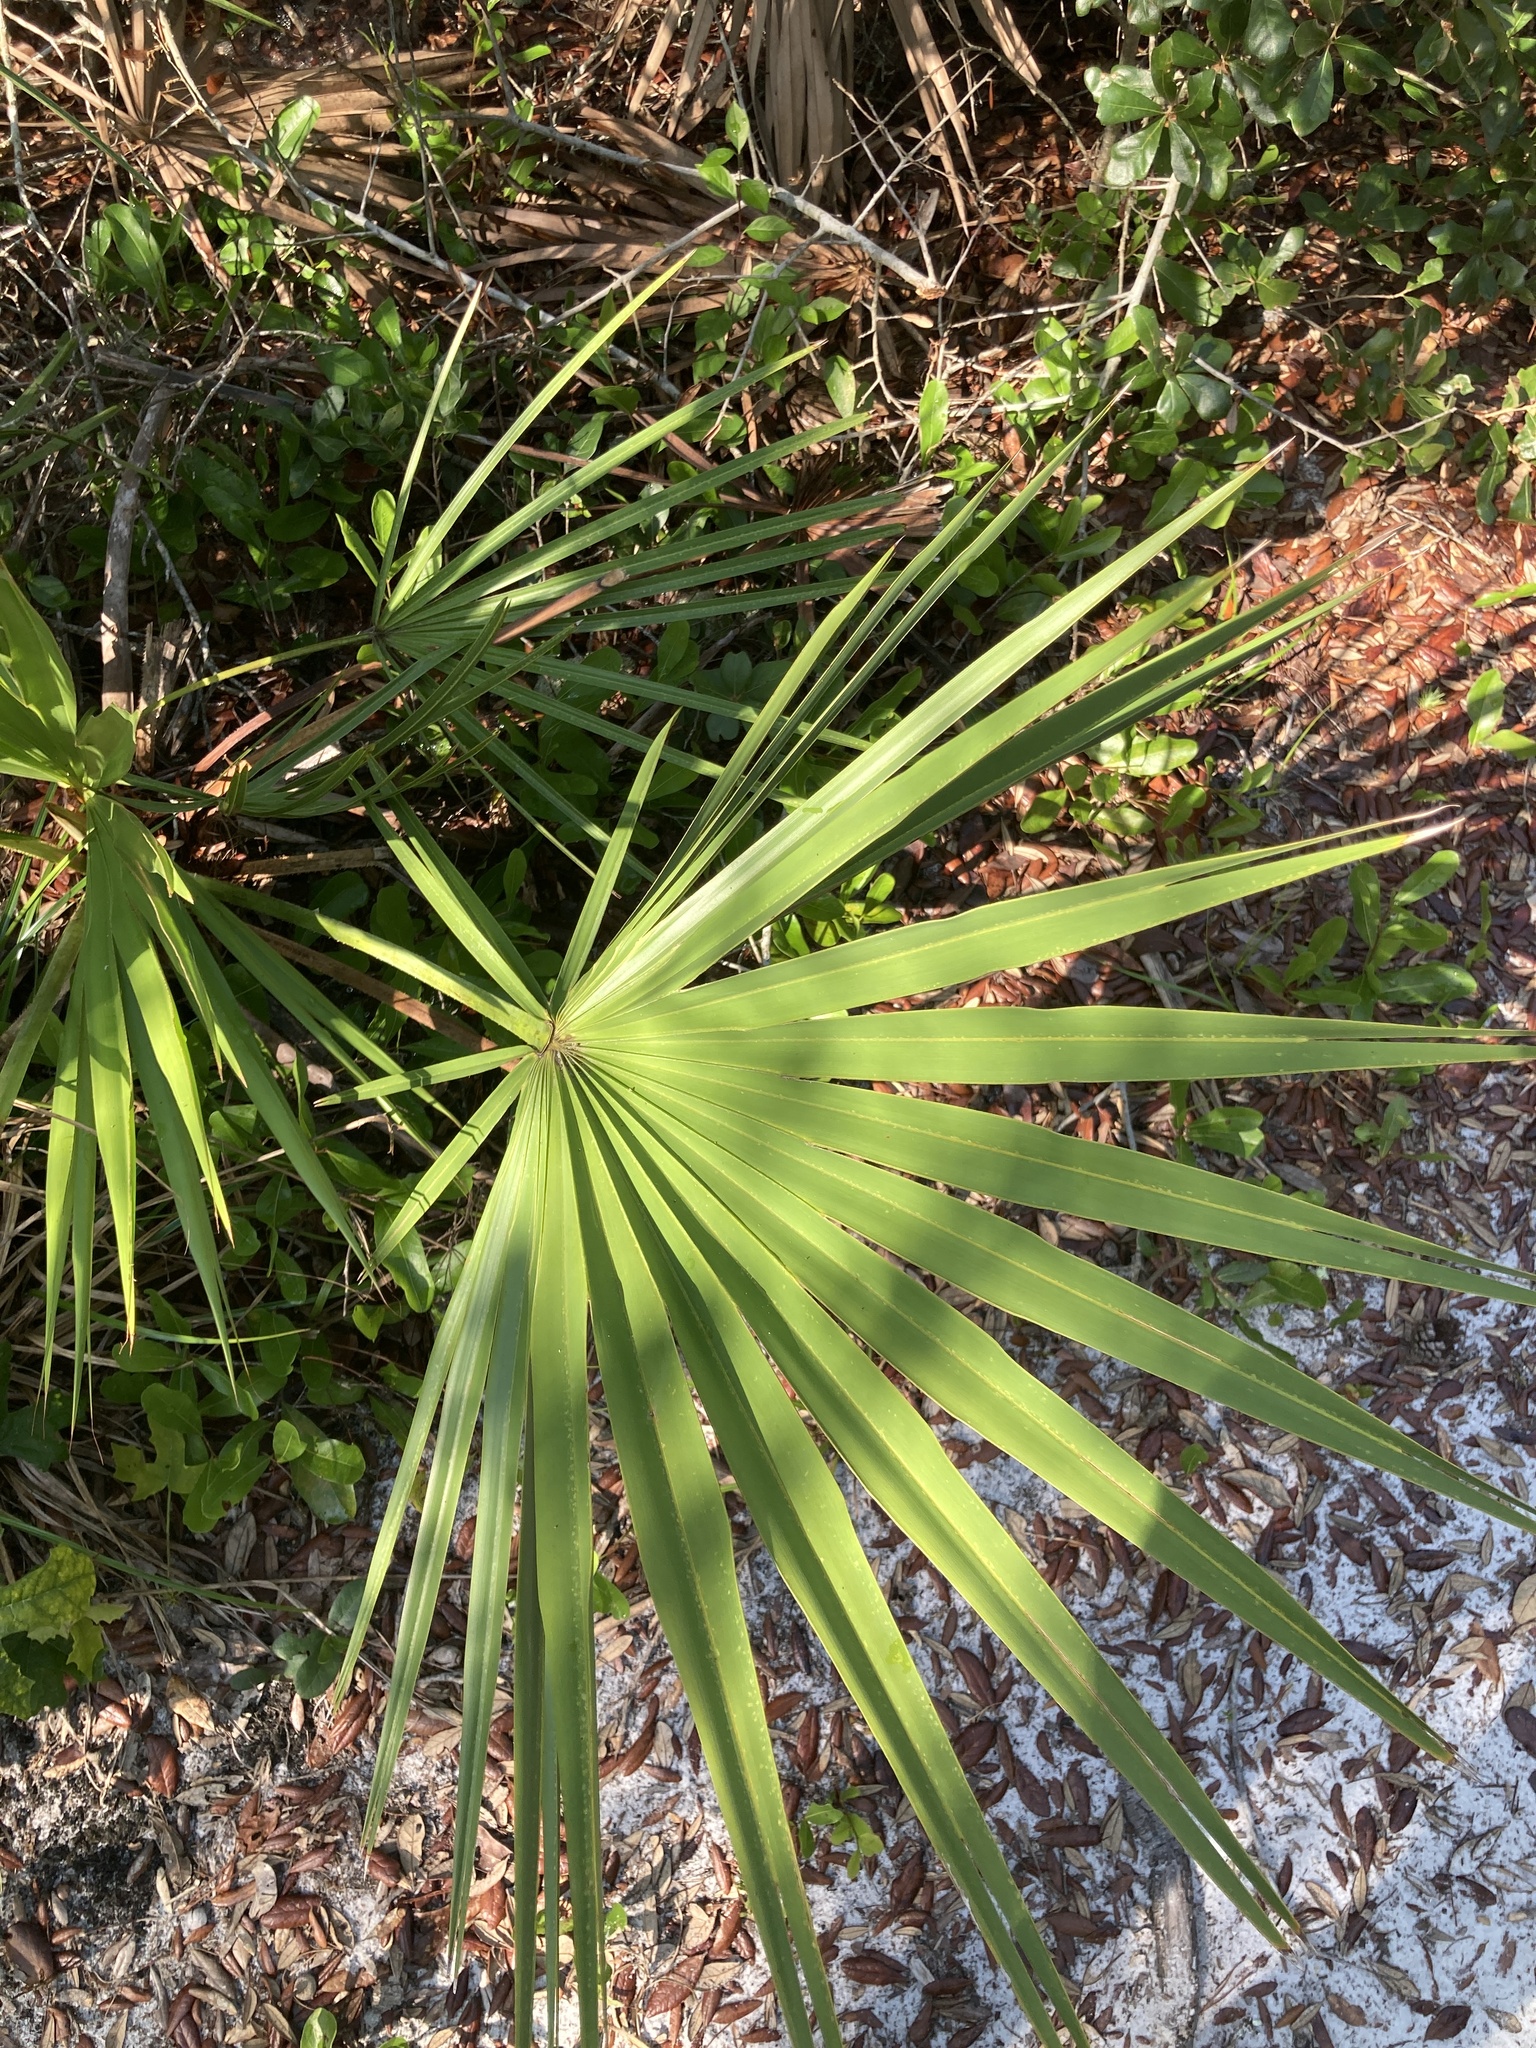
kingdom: Plantae
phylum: Tracheophyta
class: Liliopsida
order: Arecales
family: Arecaceae
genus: Serenoa
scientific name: Serenoa repens
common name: Saw-palmetto
